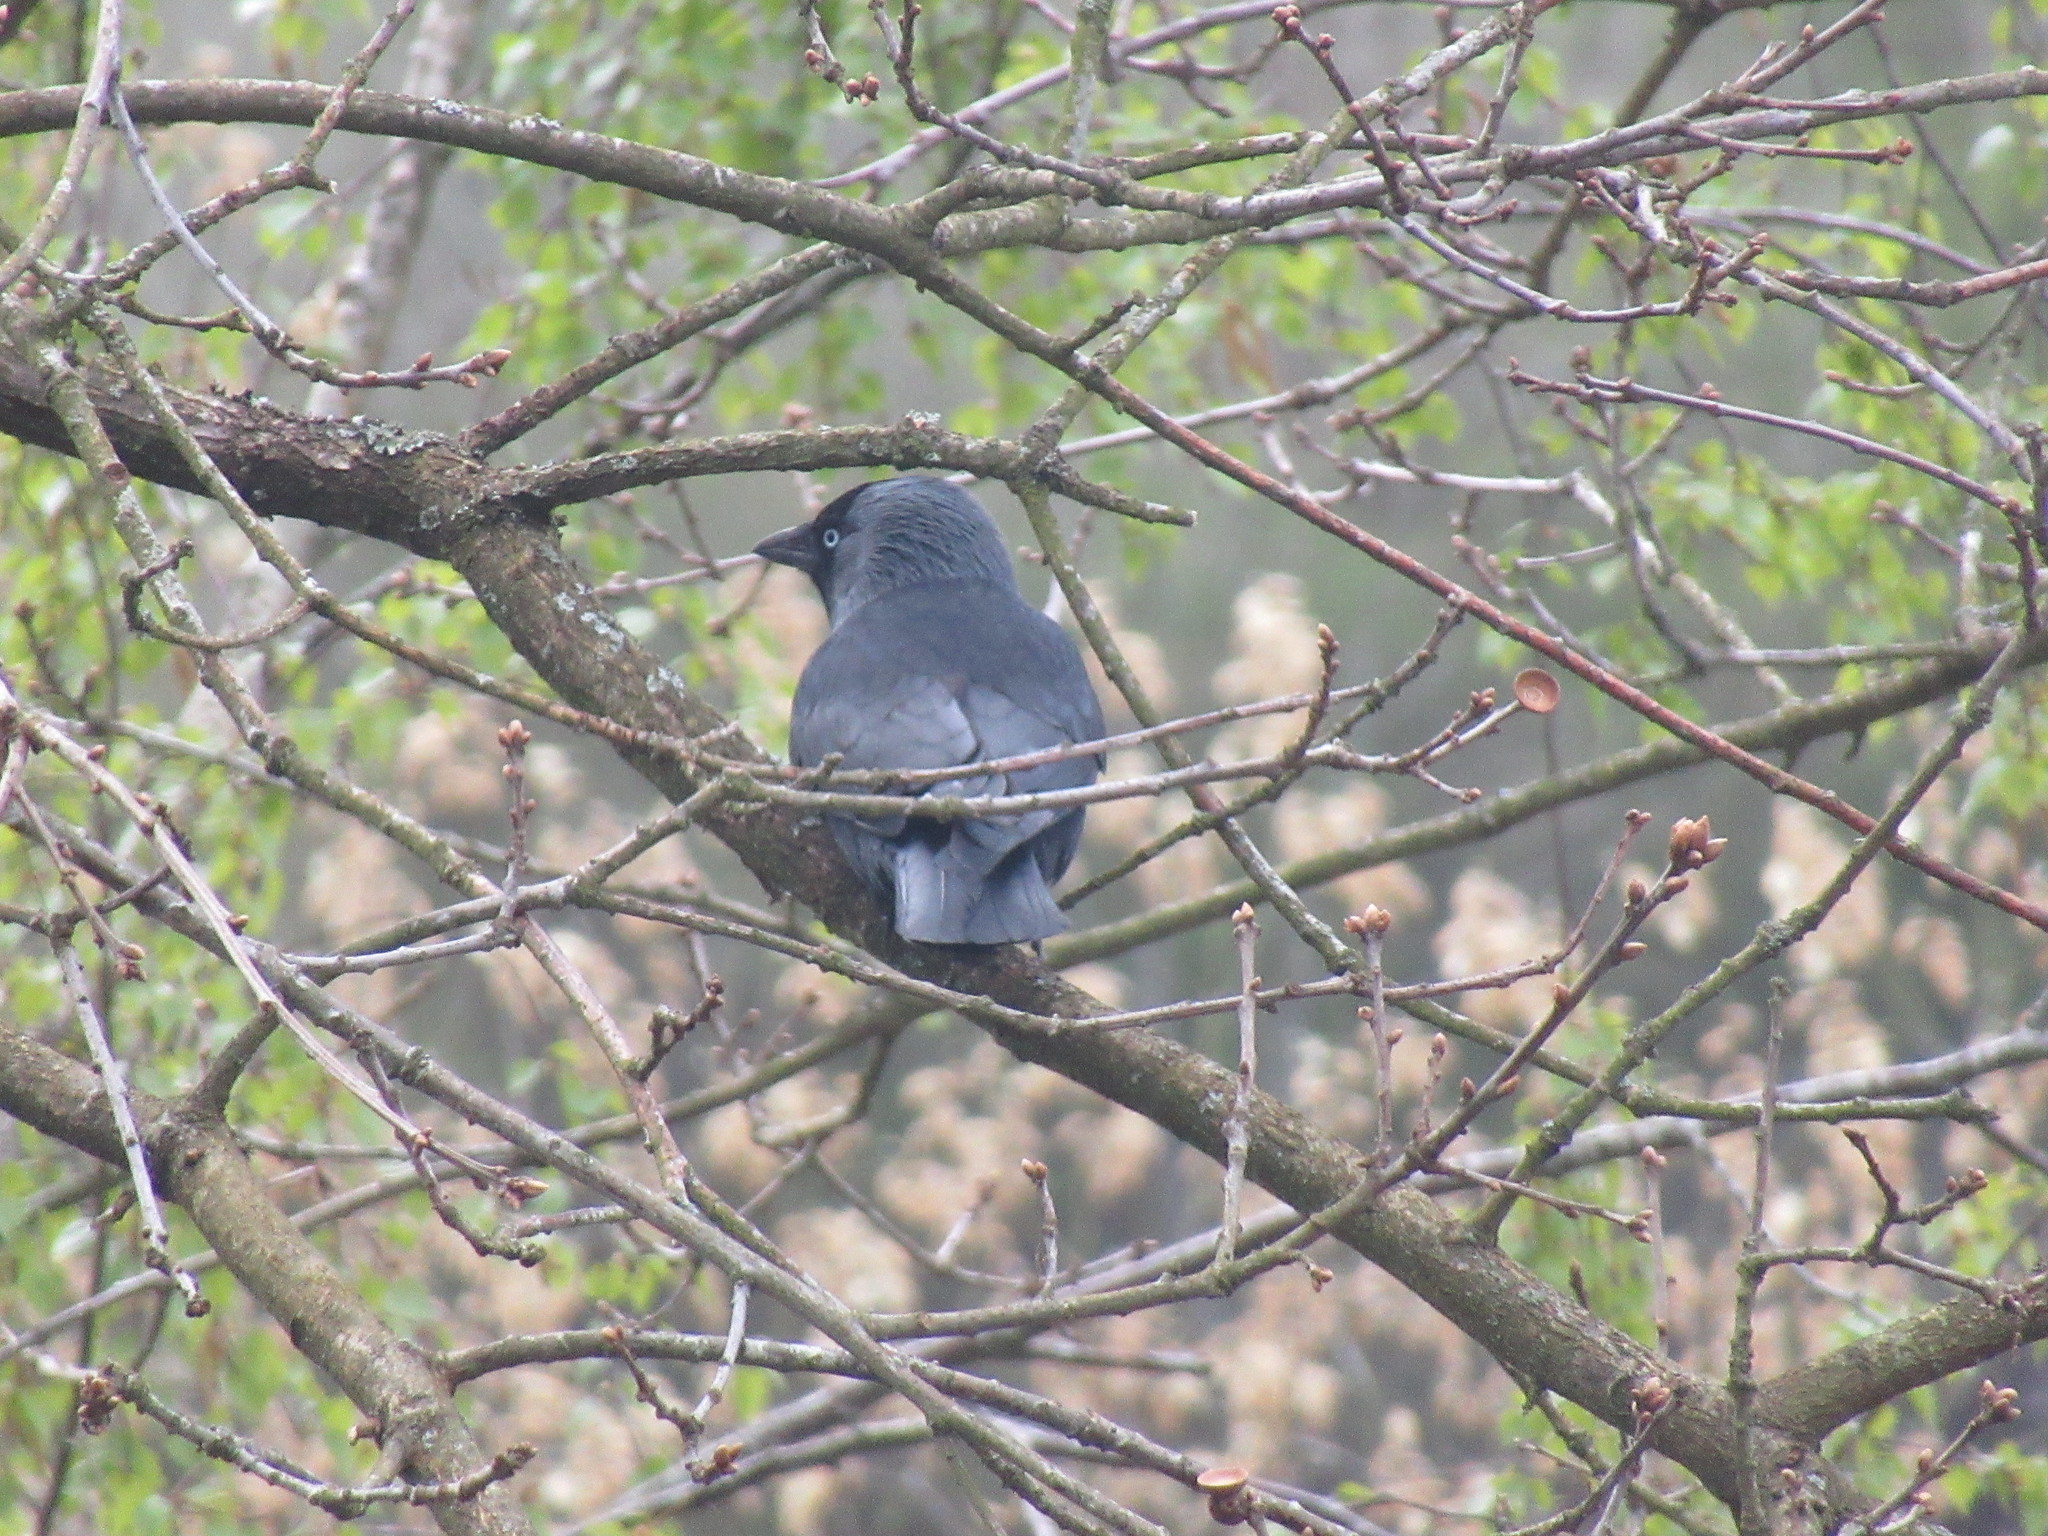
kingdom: Animalia
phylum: Chordata
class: Aves
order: Passeriformes
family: Corvidae
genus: Coloeus
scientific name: Coloeus monedula
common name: Western jackdaw
